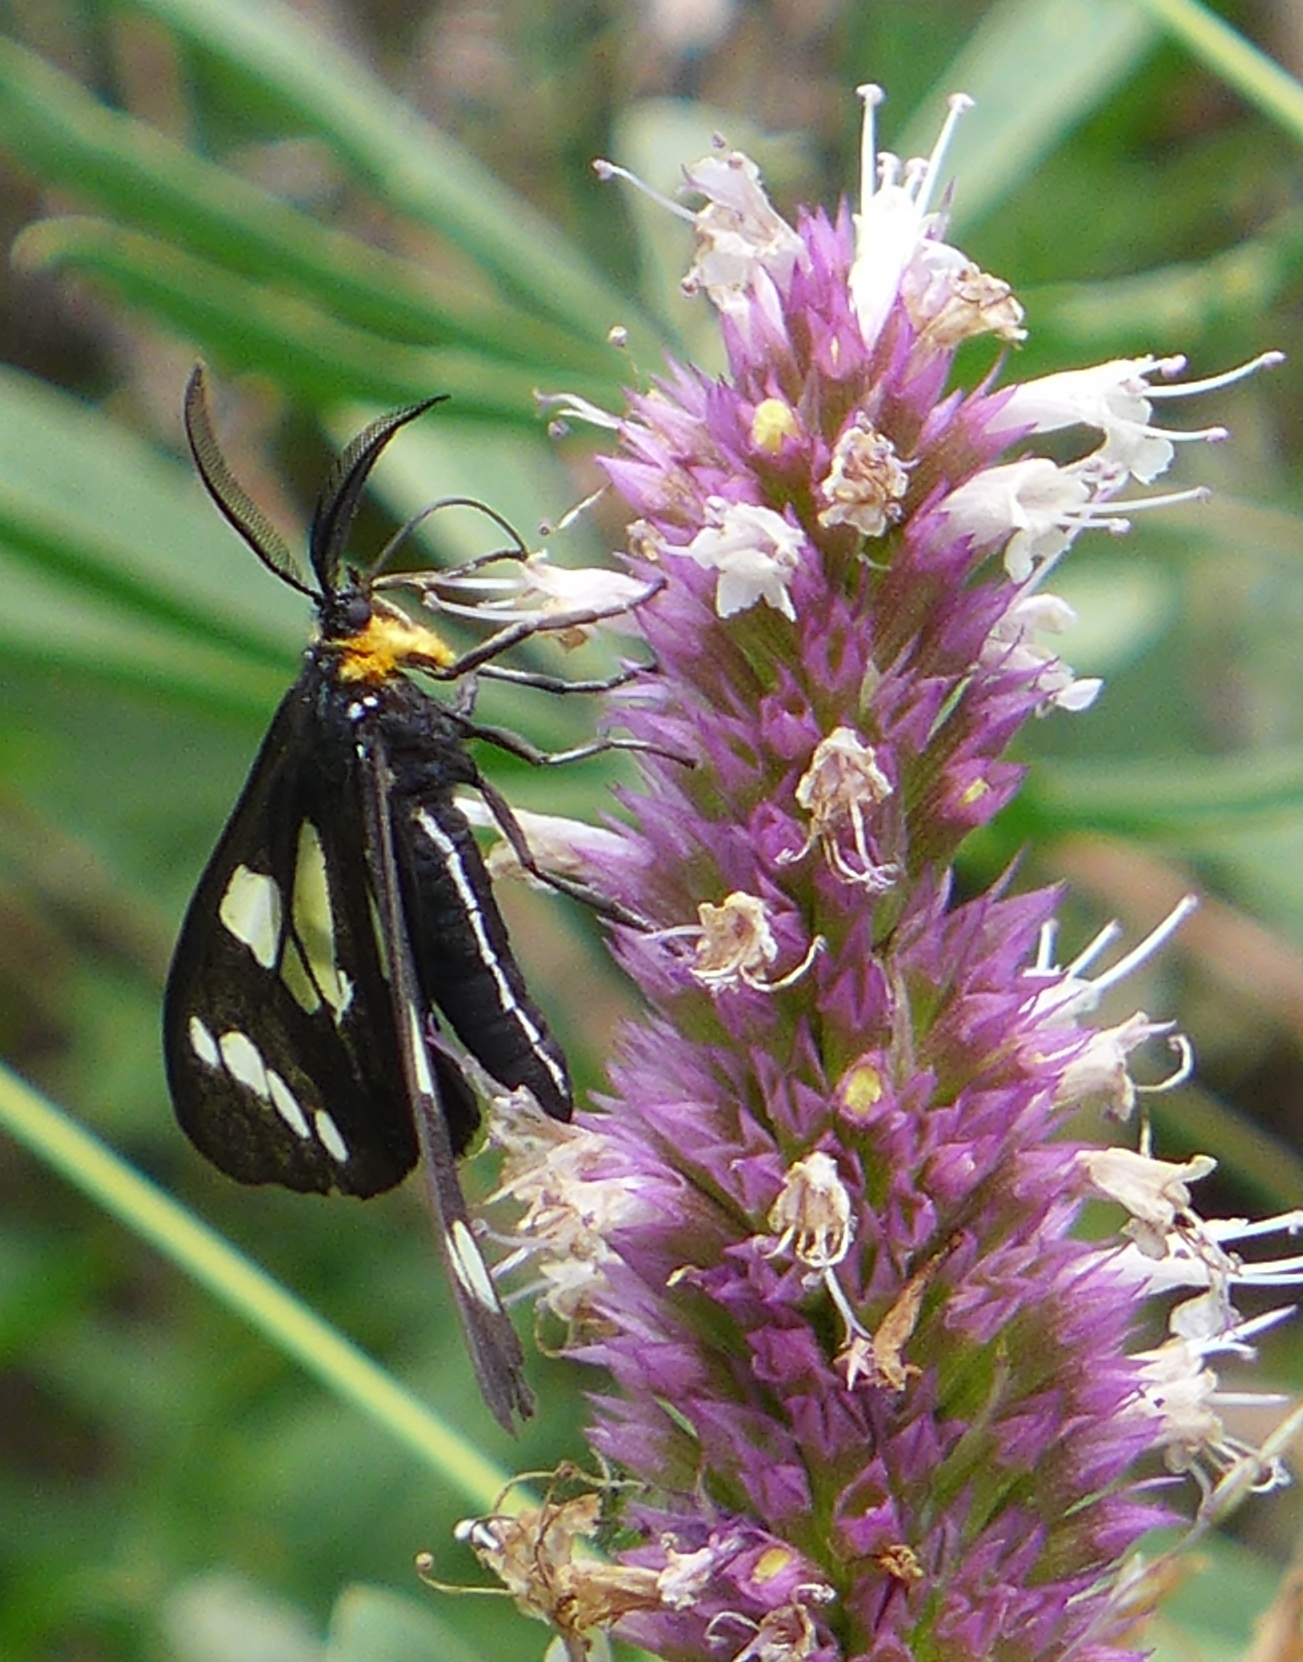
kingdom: Animalia
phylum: Arthropoda
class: Insecta
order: Lepidoptera
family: Erebidae
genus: Gnophaela
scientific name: Gnophaela latipennis
